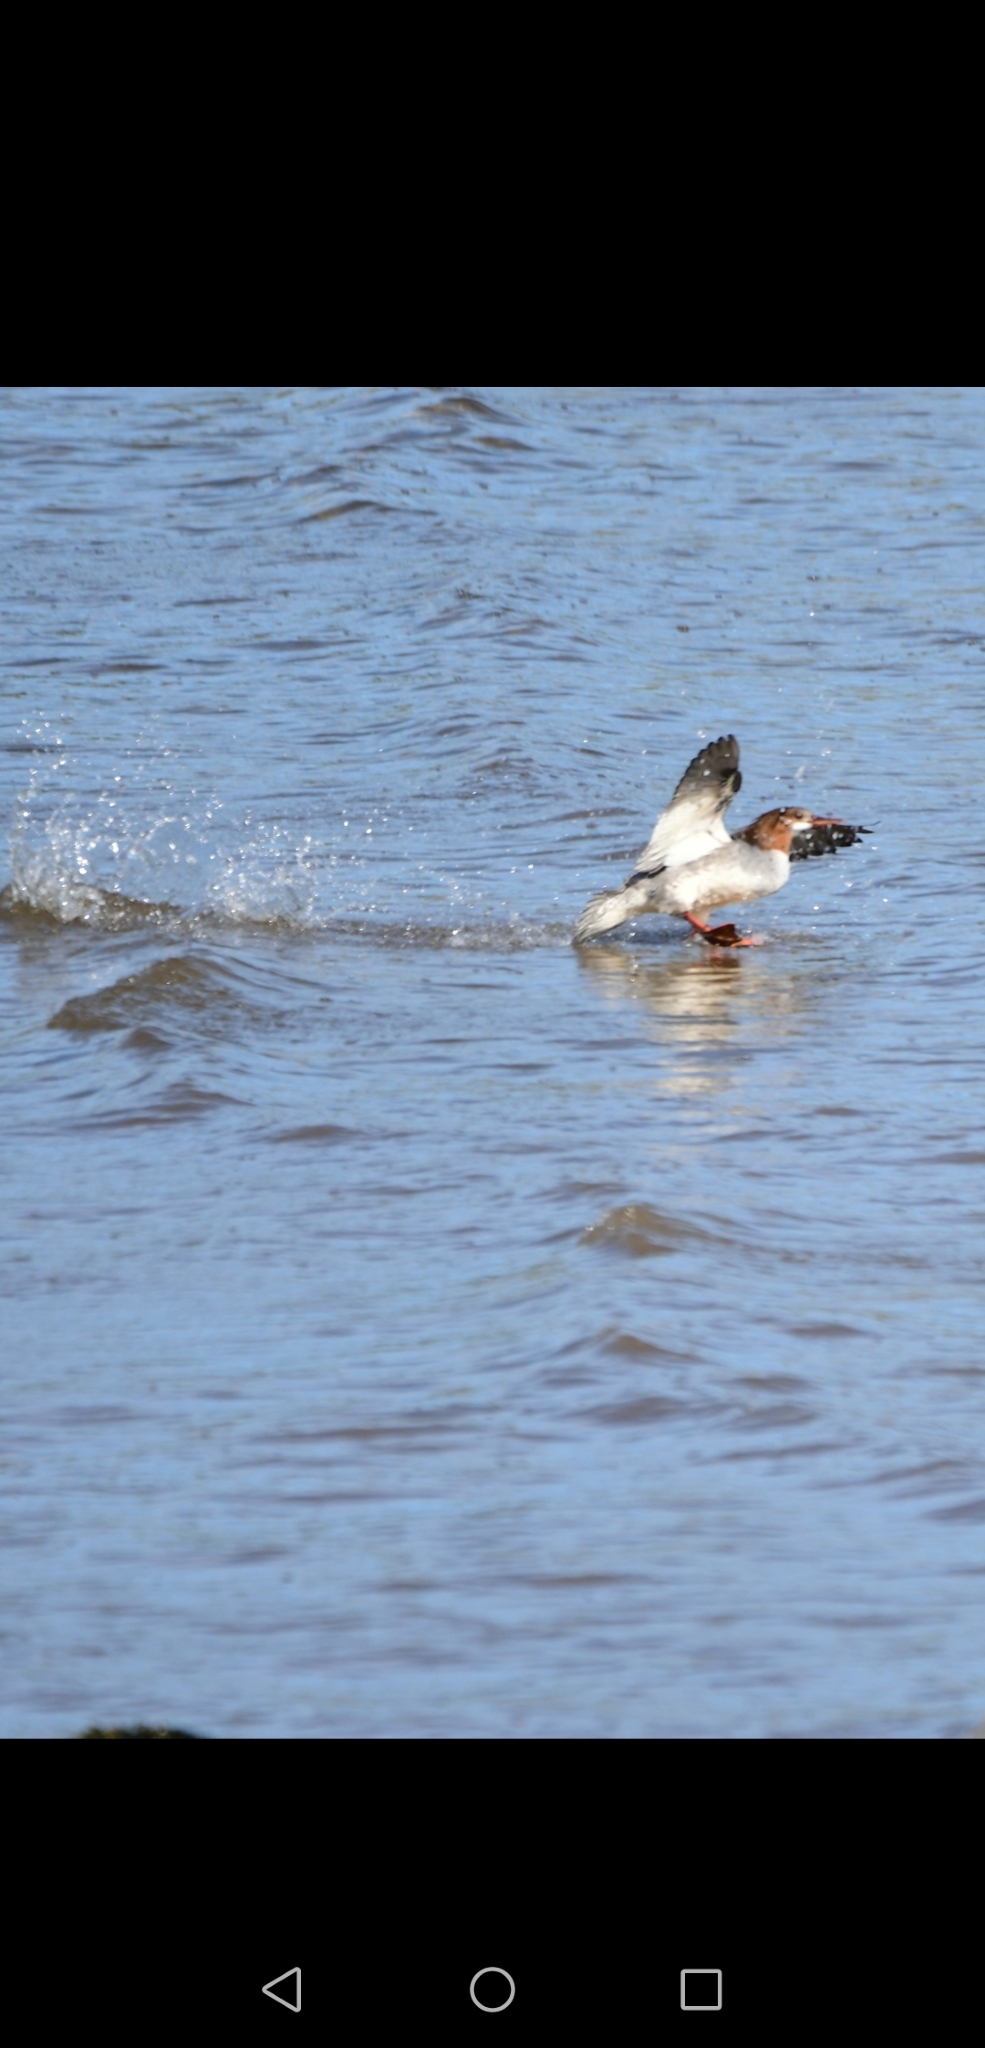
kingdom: Animalia
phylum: Chordata
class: Aves
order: Anseriformes
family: Anatidae
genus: Mergus
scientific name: Mergus merganser
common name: Common merganser
